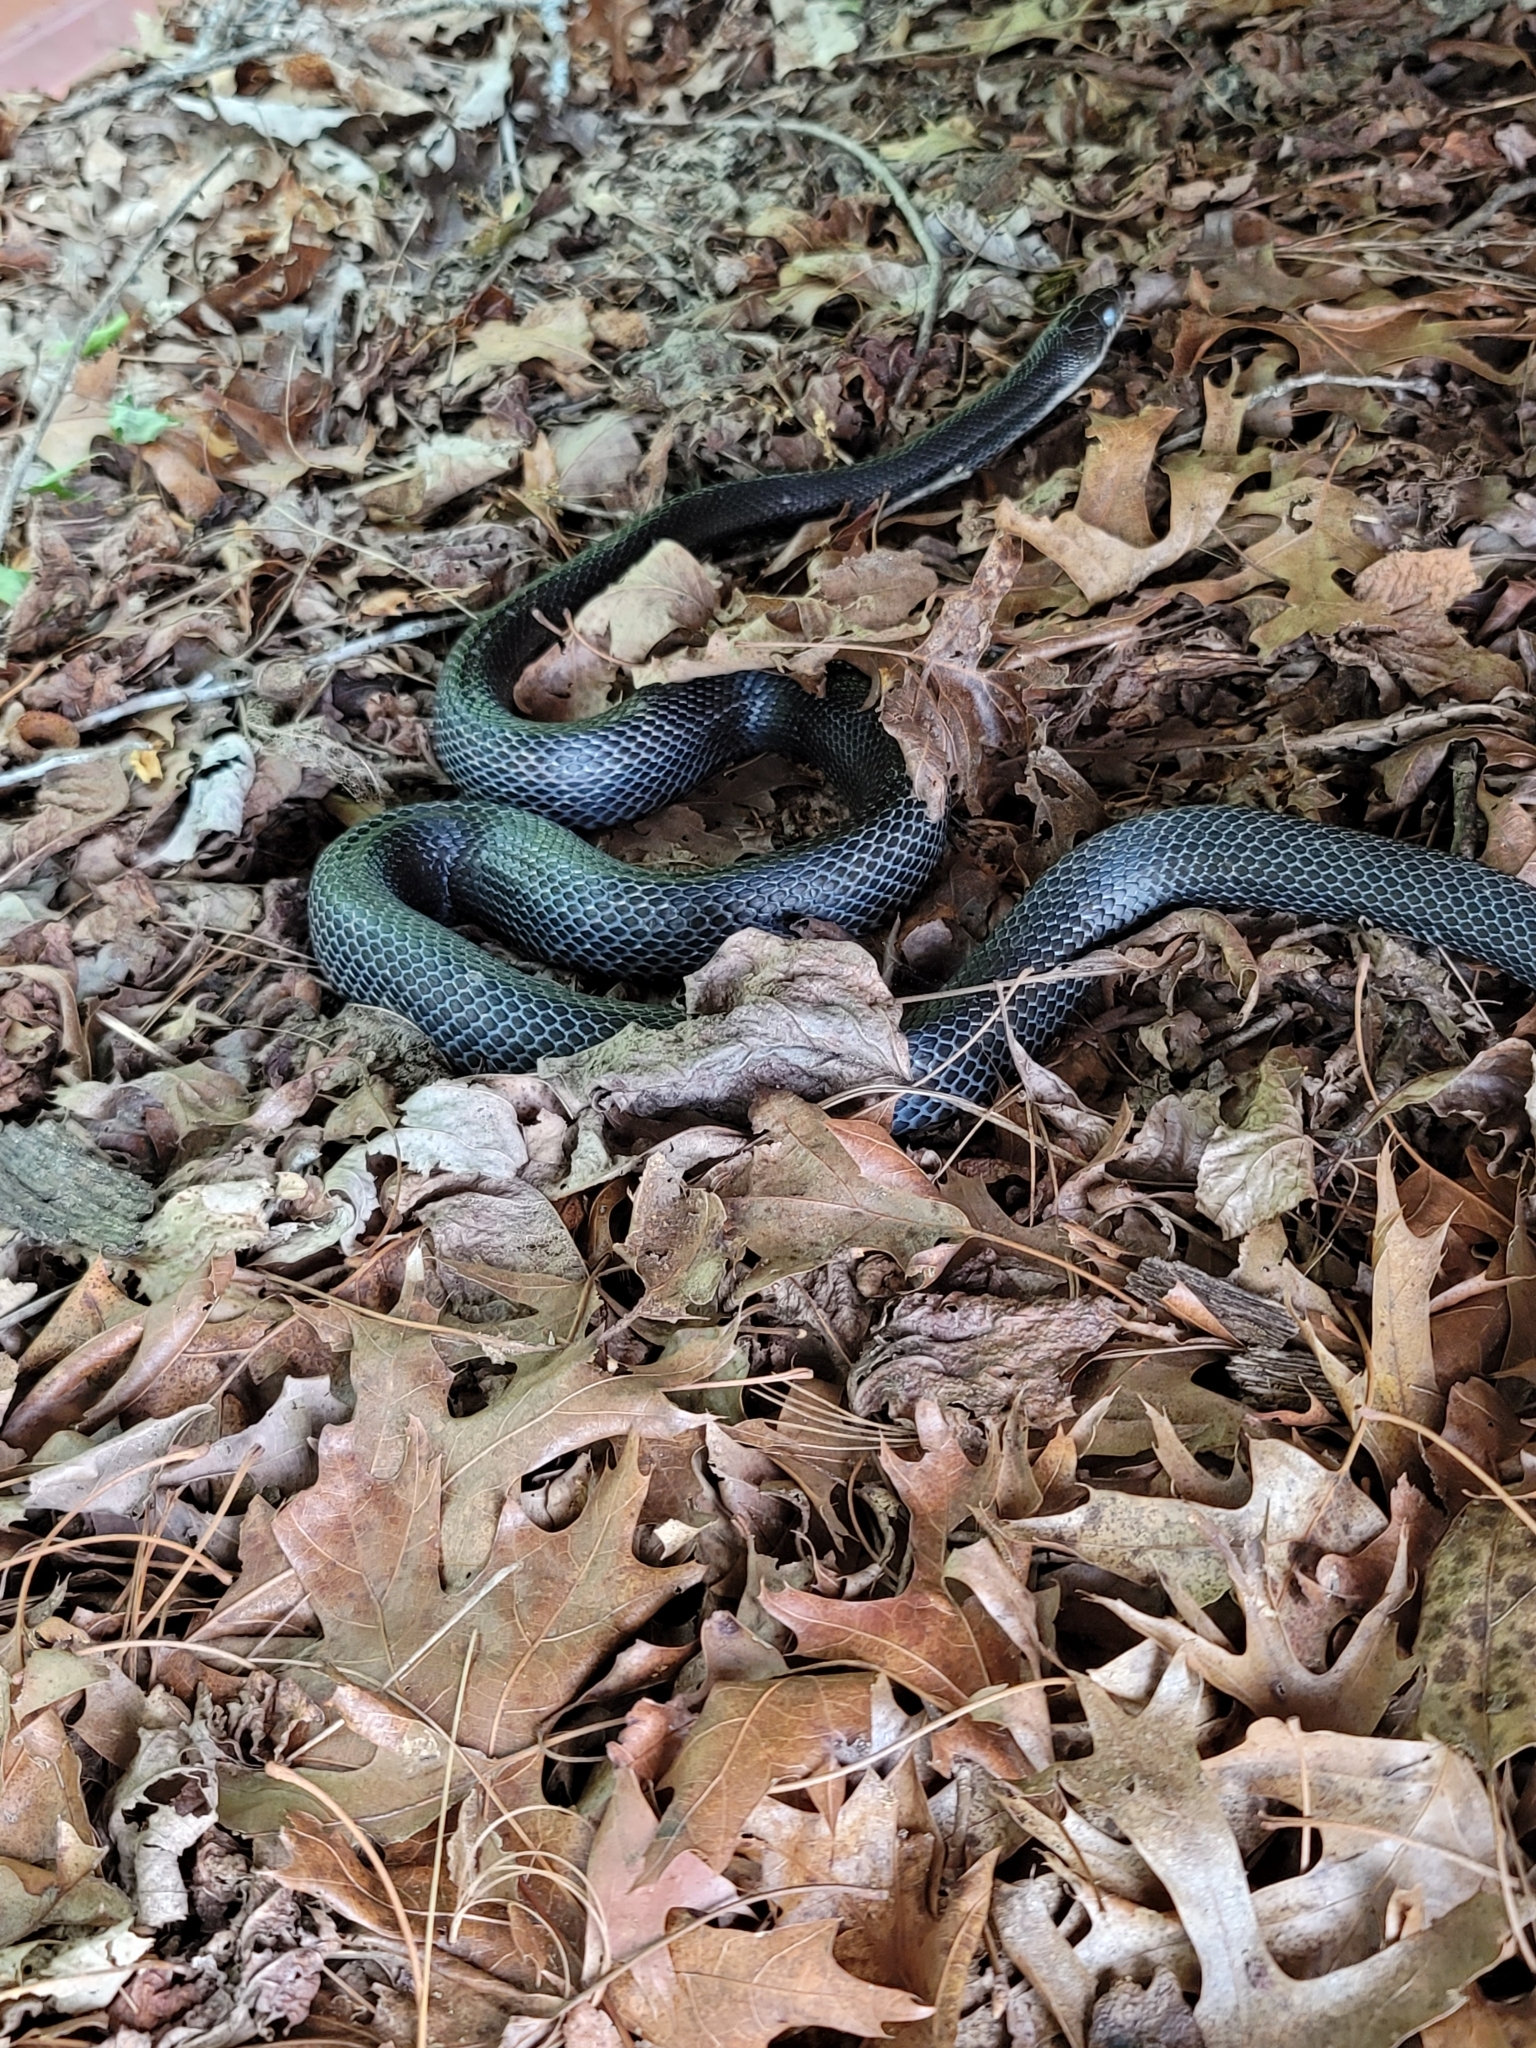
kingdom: Animalia
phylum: Chordata
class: Squamata
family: Colubridae
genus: Coluber
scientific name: Coluber constrictor
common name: Eastern racer
